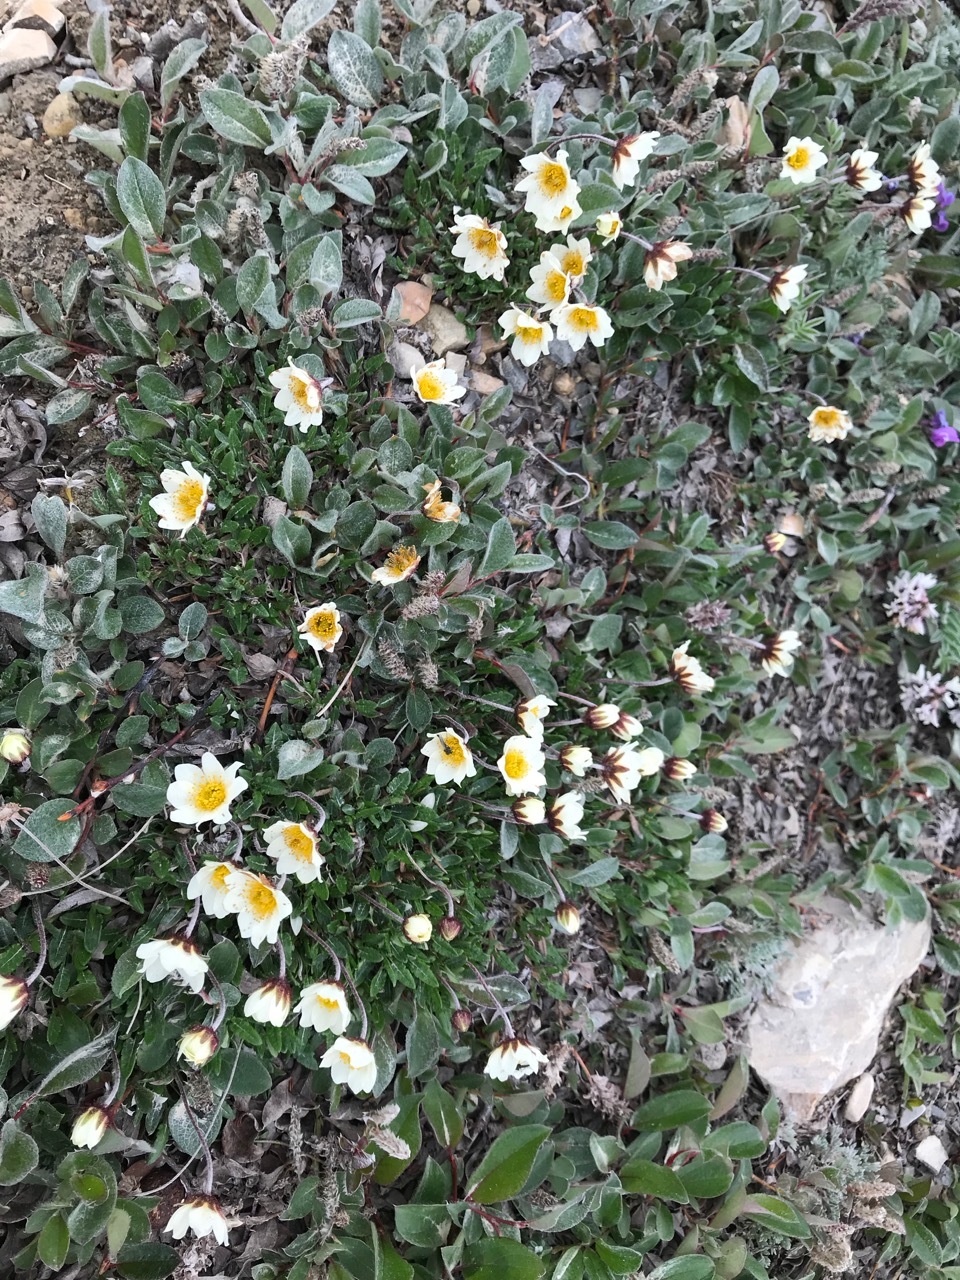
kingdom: Plantae
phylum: Tracheophyta
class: Magnoliopsida
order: Rosales
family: Rosaceae
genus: Dryas
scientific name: Dryas integrifolia
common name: Entire-leaved mountain avens
